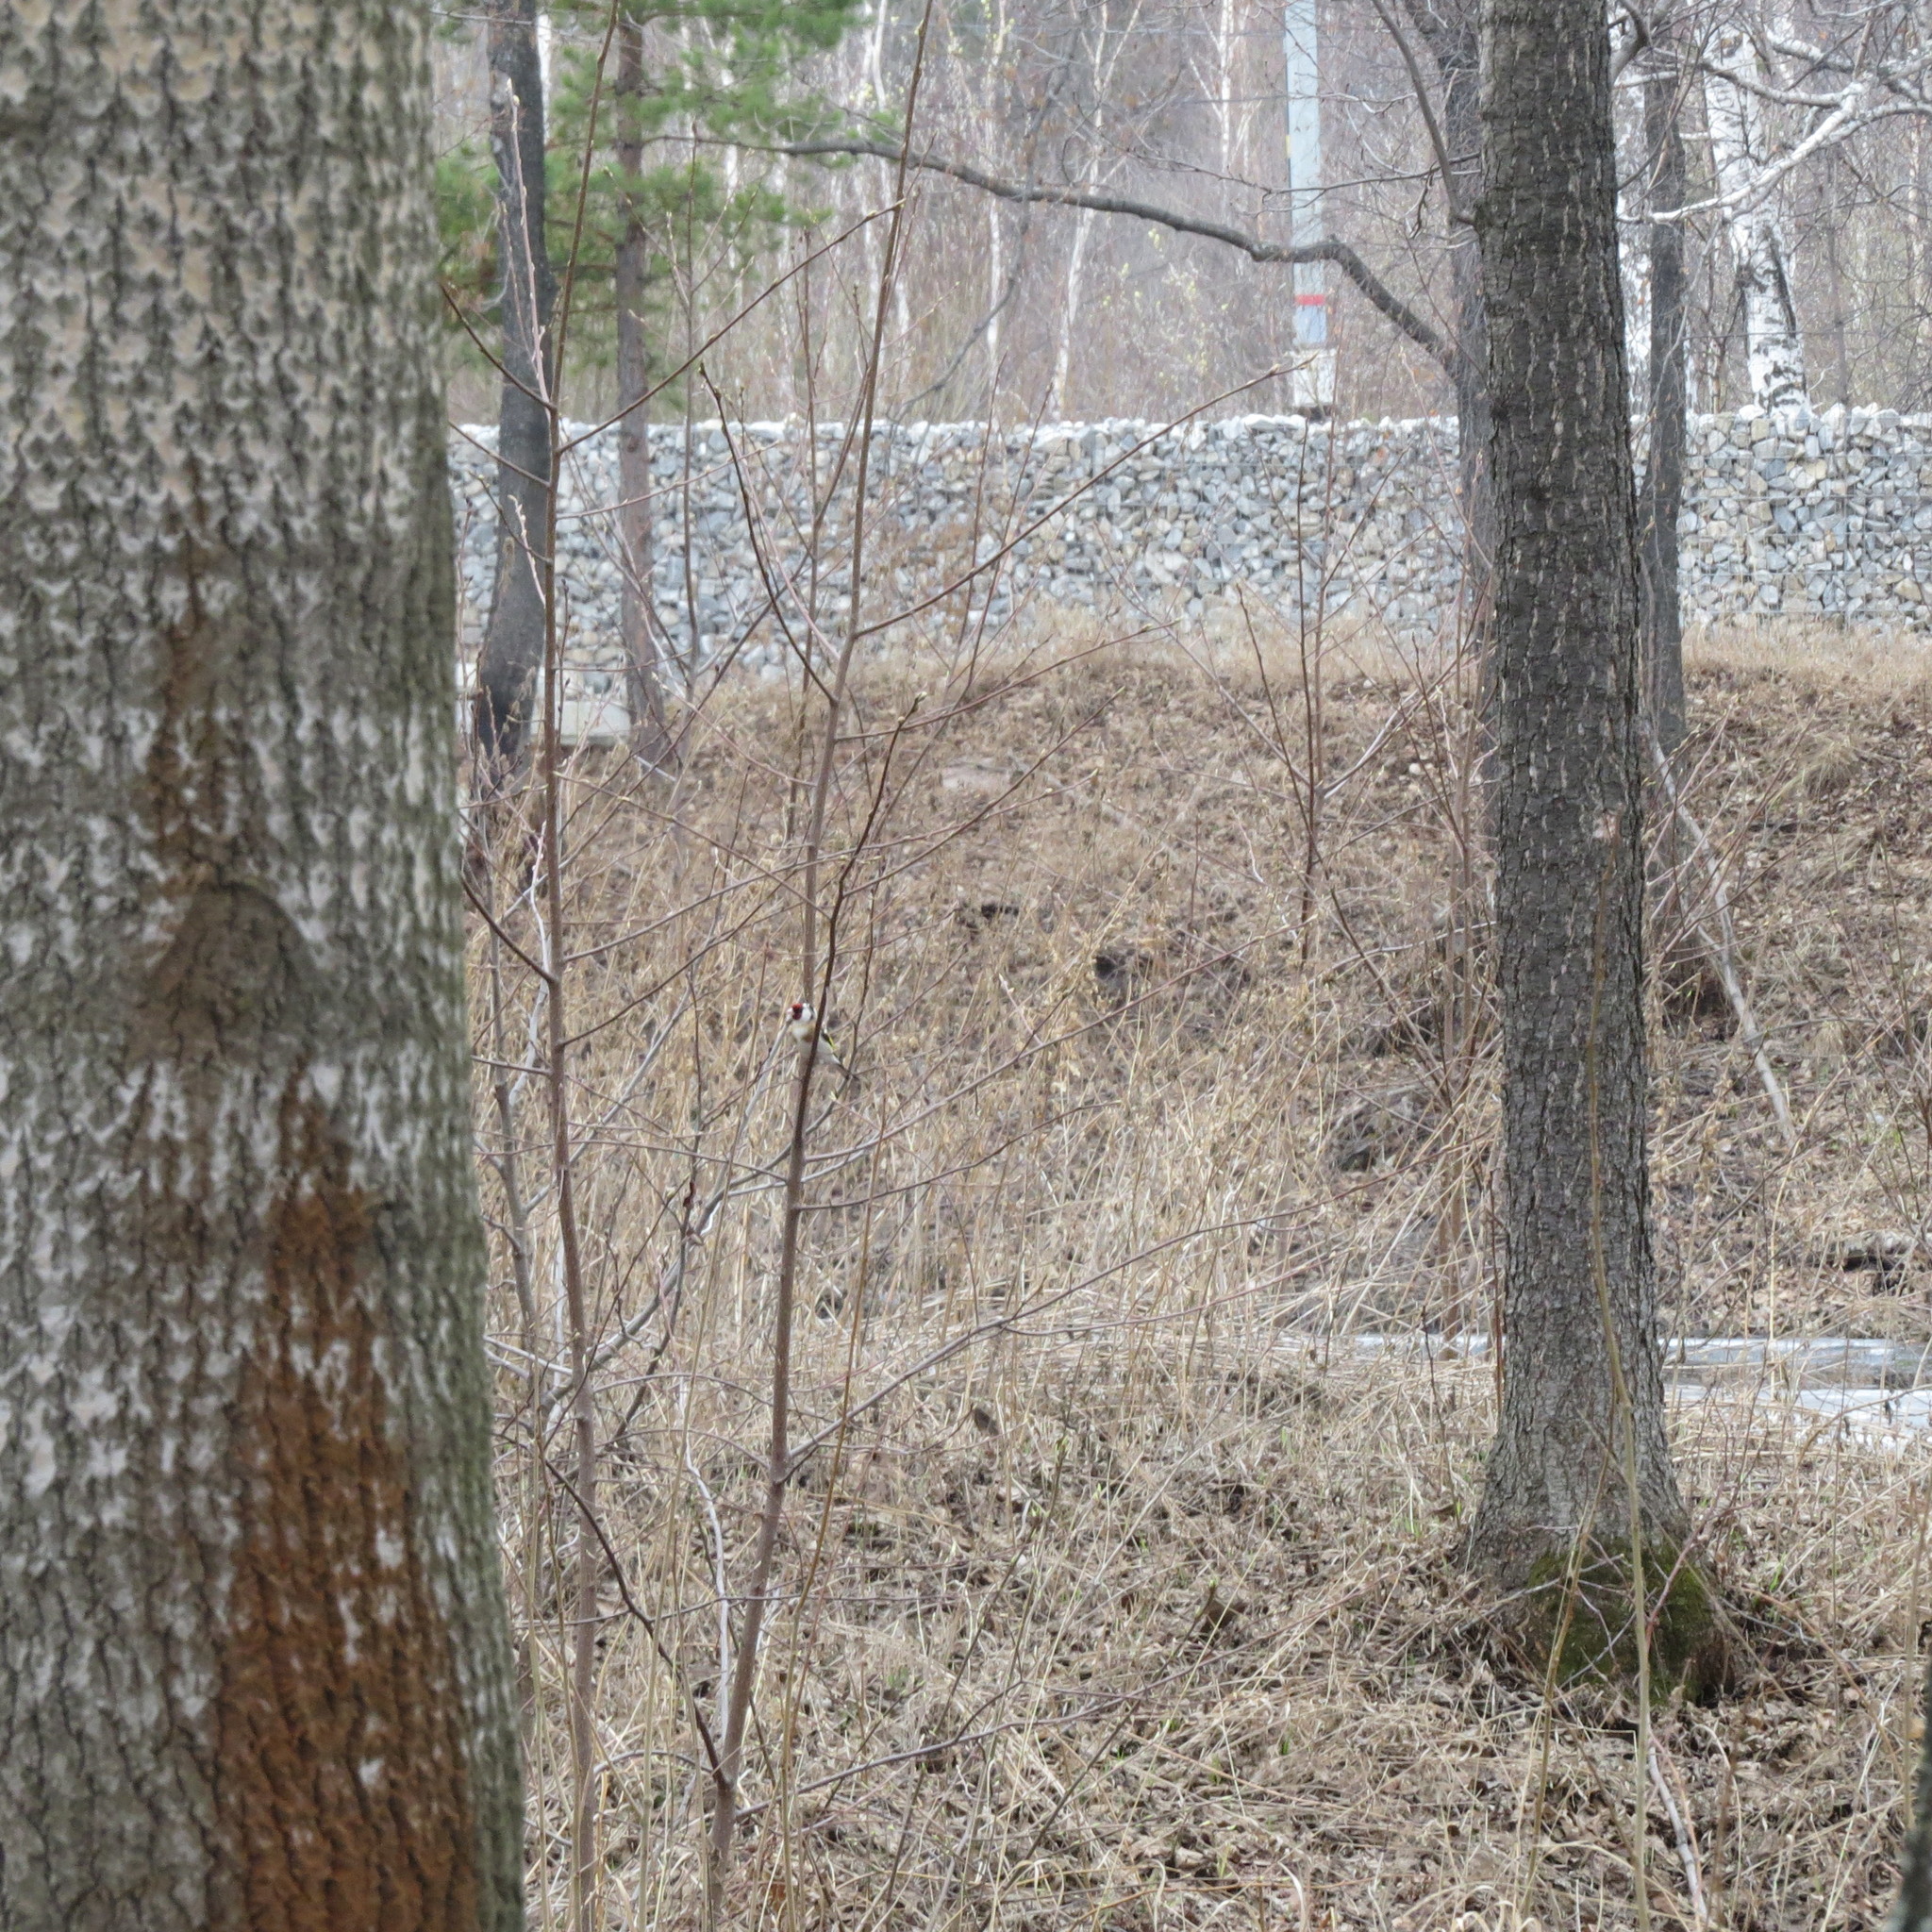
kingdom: Animalia
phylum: Chordata
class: Aves
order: Passeriformes
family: Fringillidae
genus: Carduelis
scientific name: Carduelis carduelis
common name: European goldfinch
